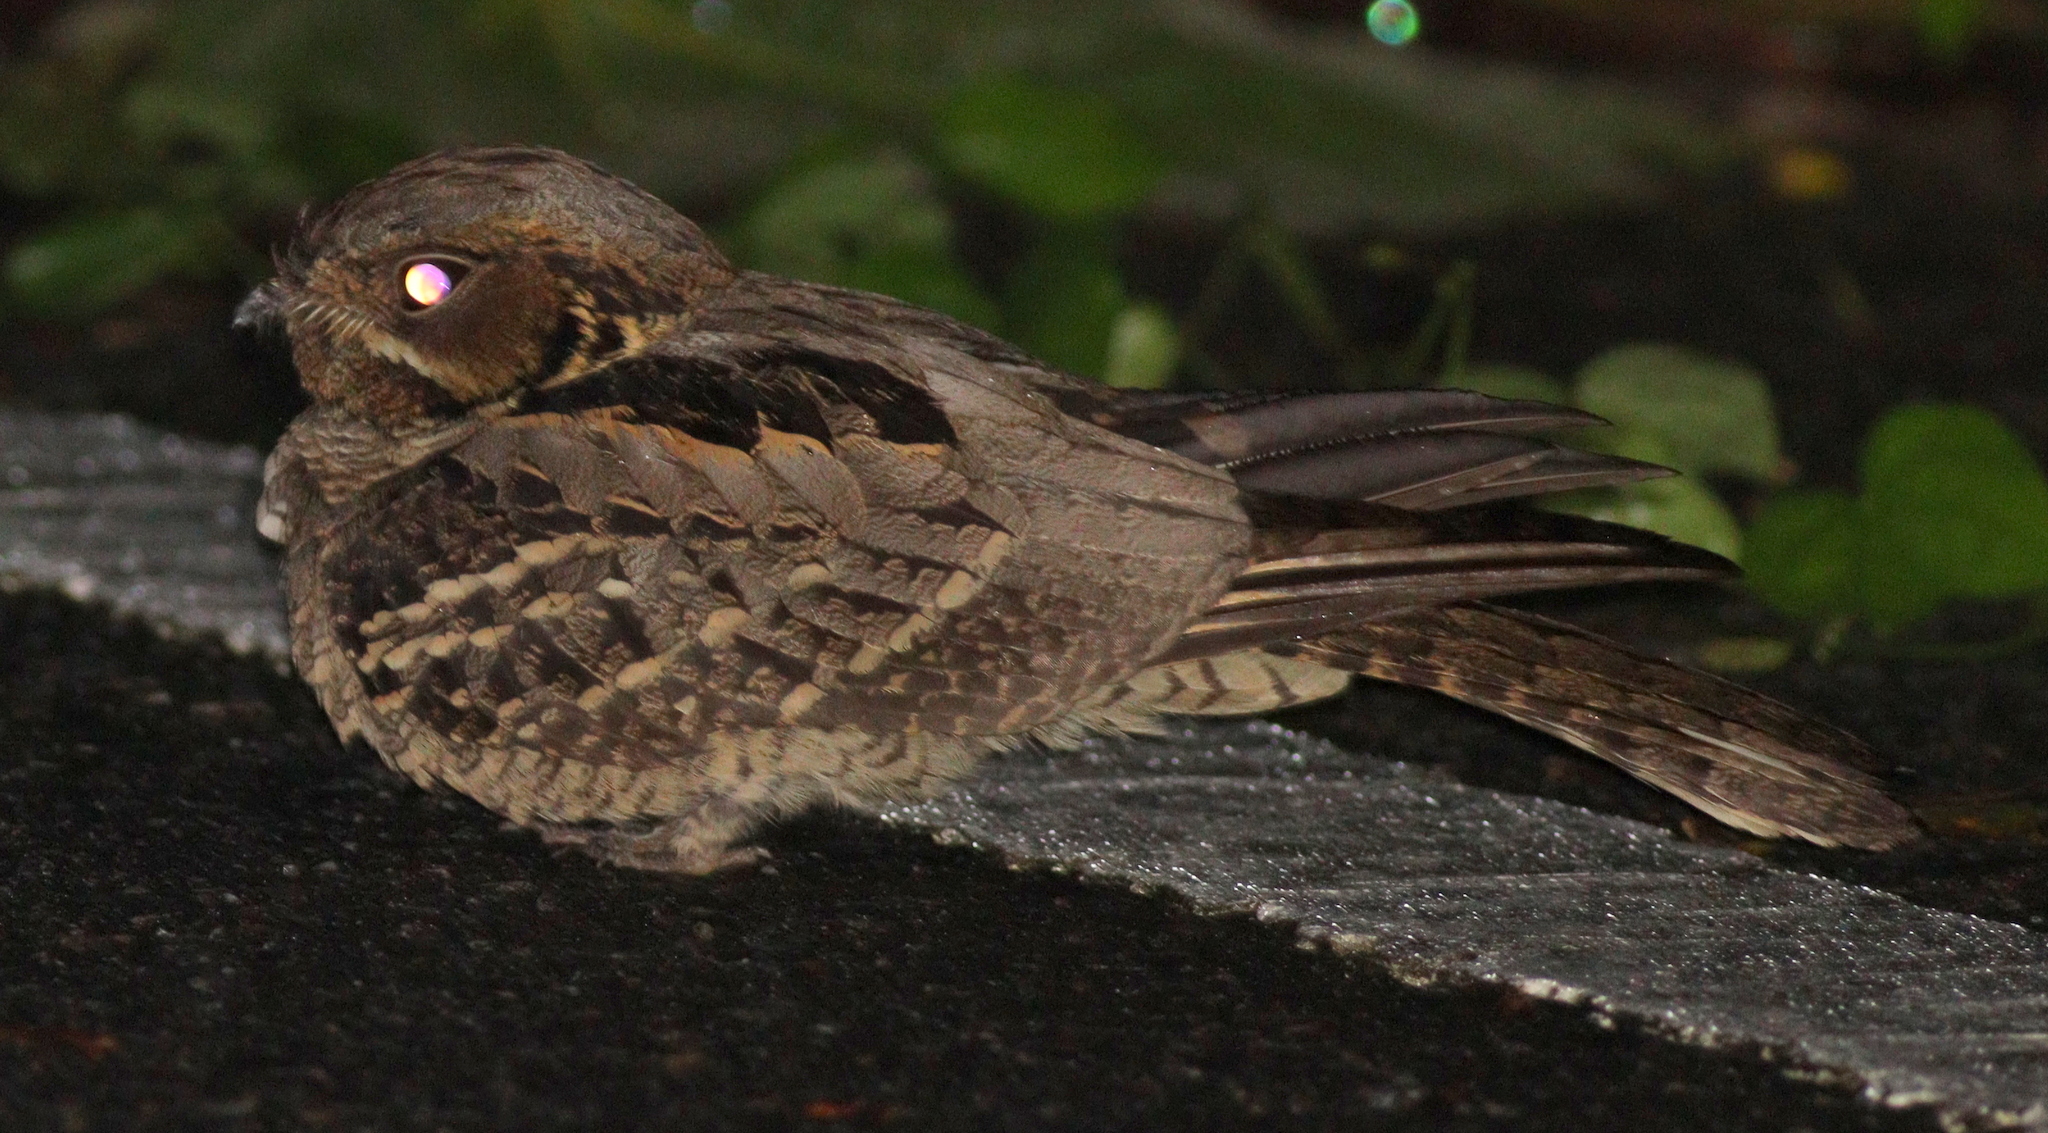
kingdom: Animalia
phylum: Chordata
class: Aves
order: Caprimulgiformes
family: Caprimulgidae
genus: Caprimulgus
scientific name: Caprimulgus macrurus
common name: Large-tailed nightjar
